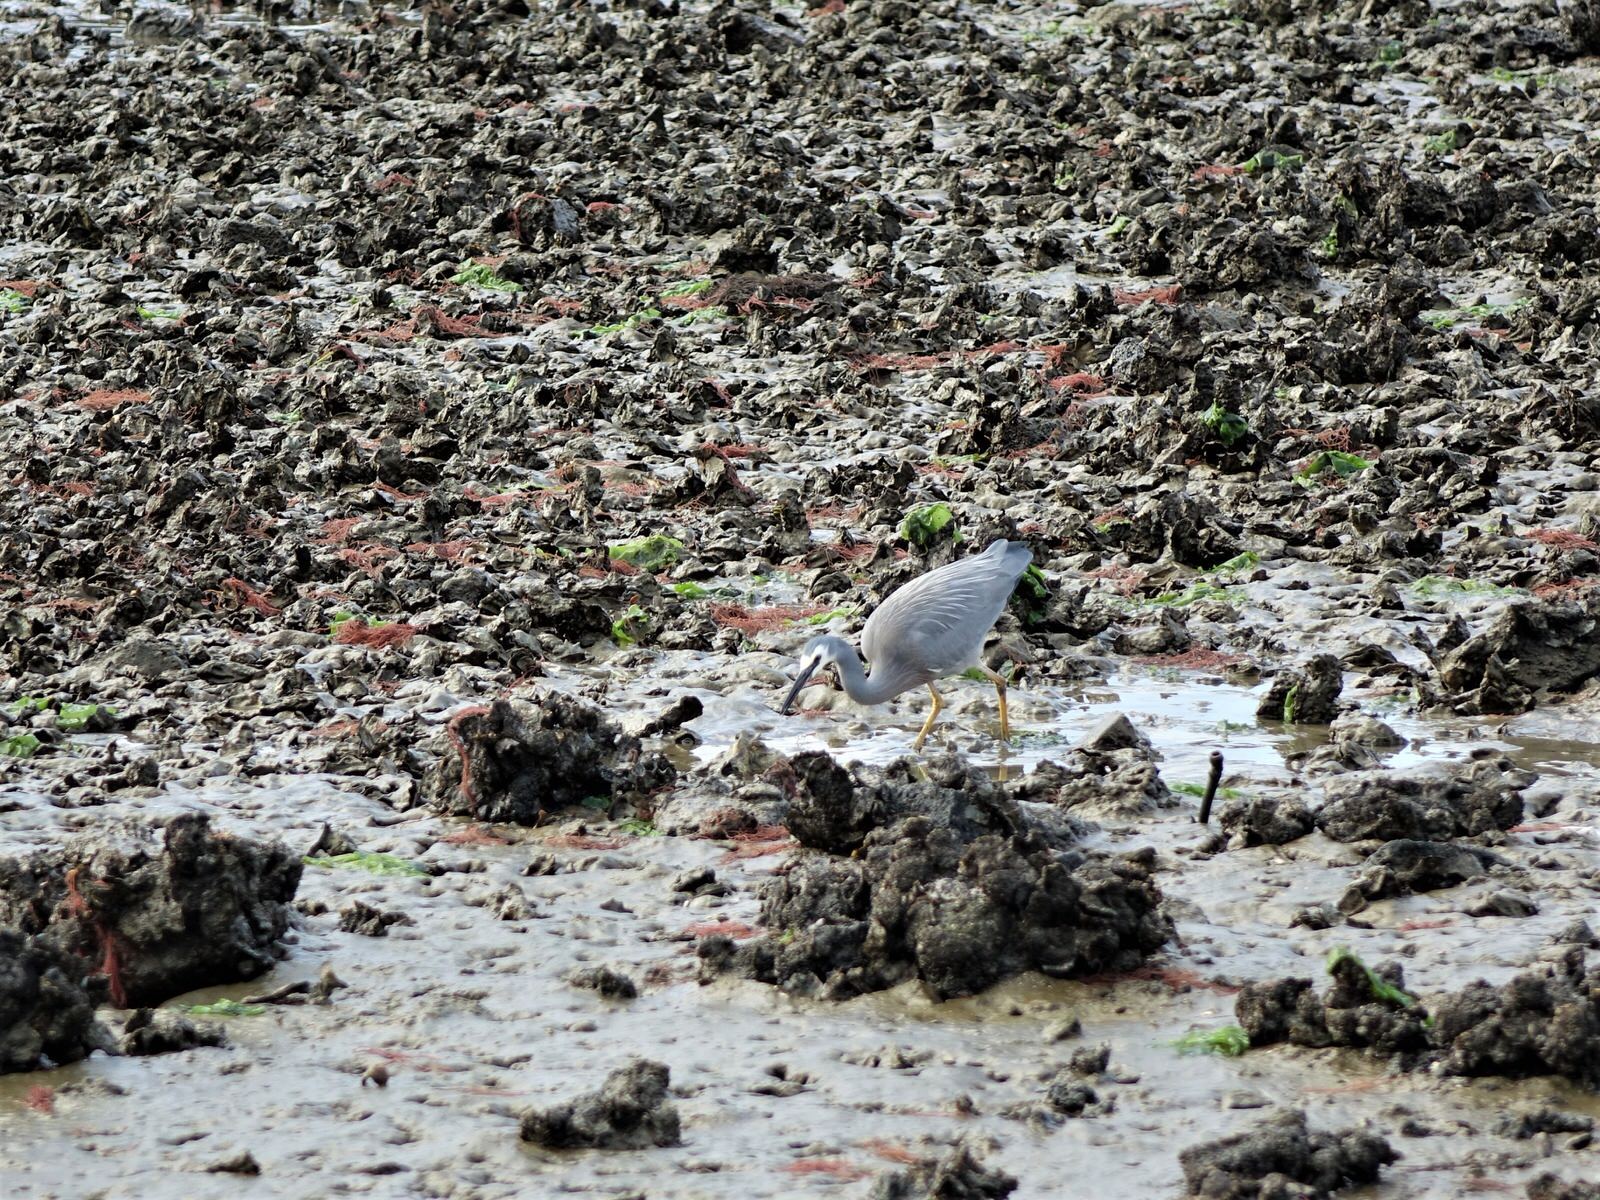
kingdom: Animalia
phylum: Chordata
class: Aves
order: Pelecaniformes
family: Ardeidae
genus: Egretta
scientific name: Egretta novaehollandiae
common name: White-faced heron
